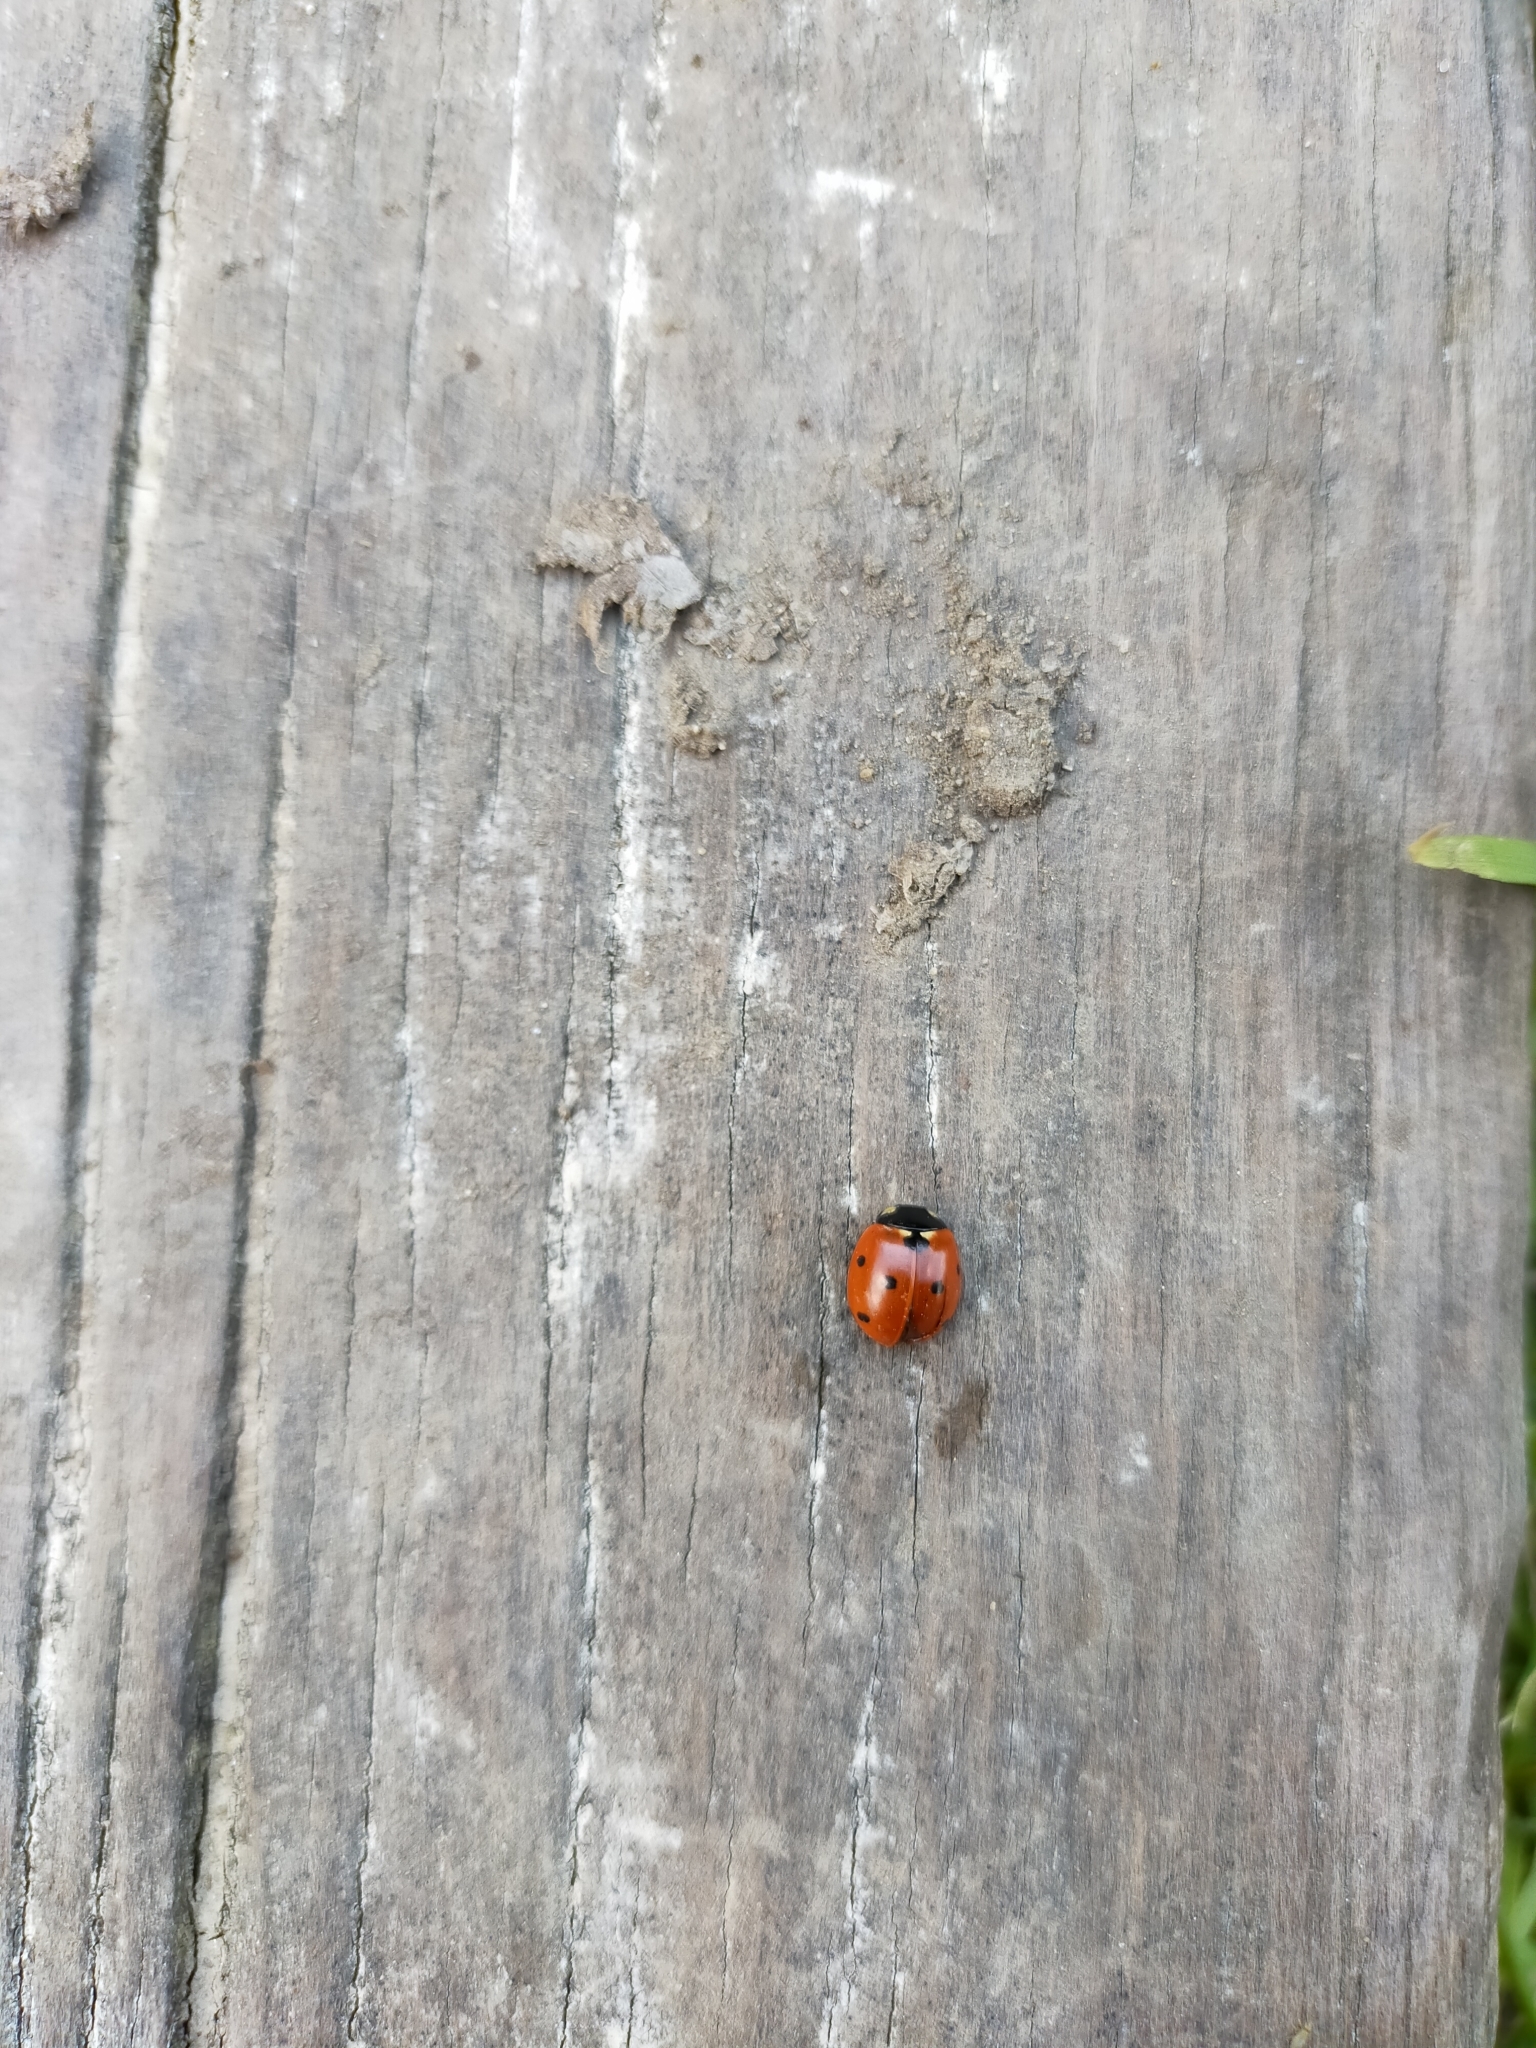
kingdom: Animalia
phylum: Arthropoda
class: Insecta
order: Coleoptera
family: Coccinellidae
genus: Coccinella
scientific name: Coccinella septempunctata
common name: Sevenspotted lady beetle
